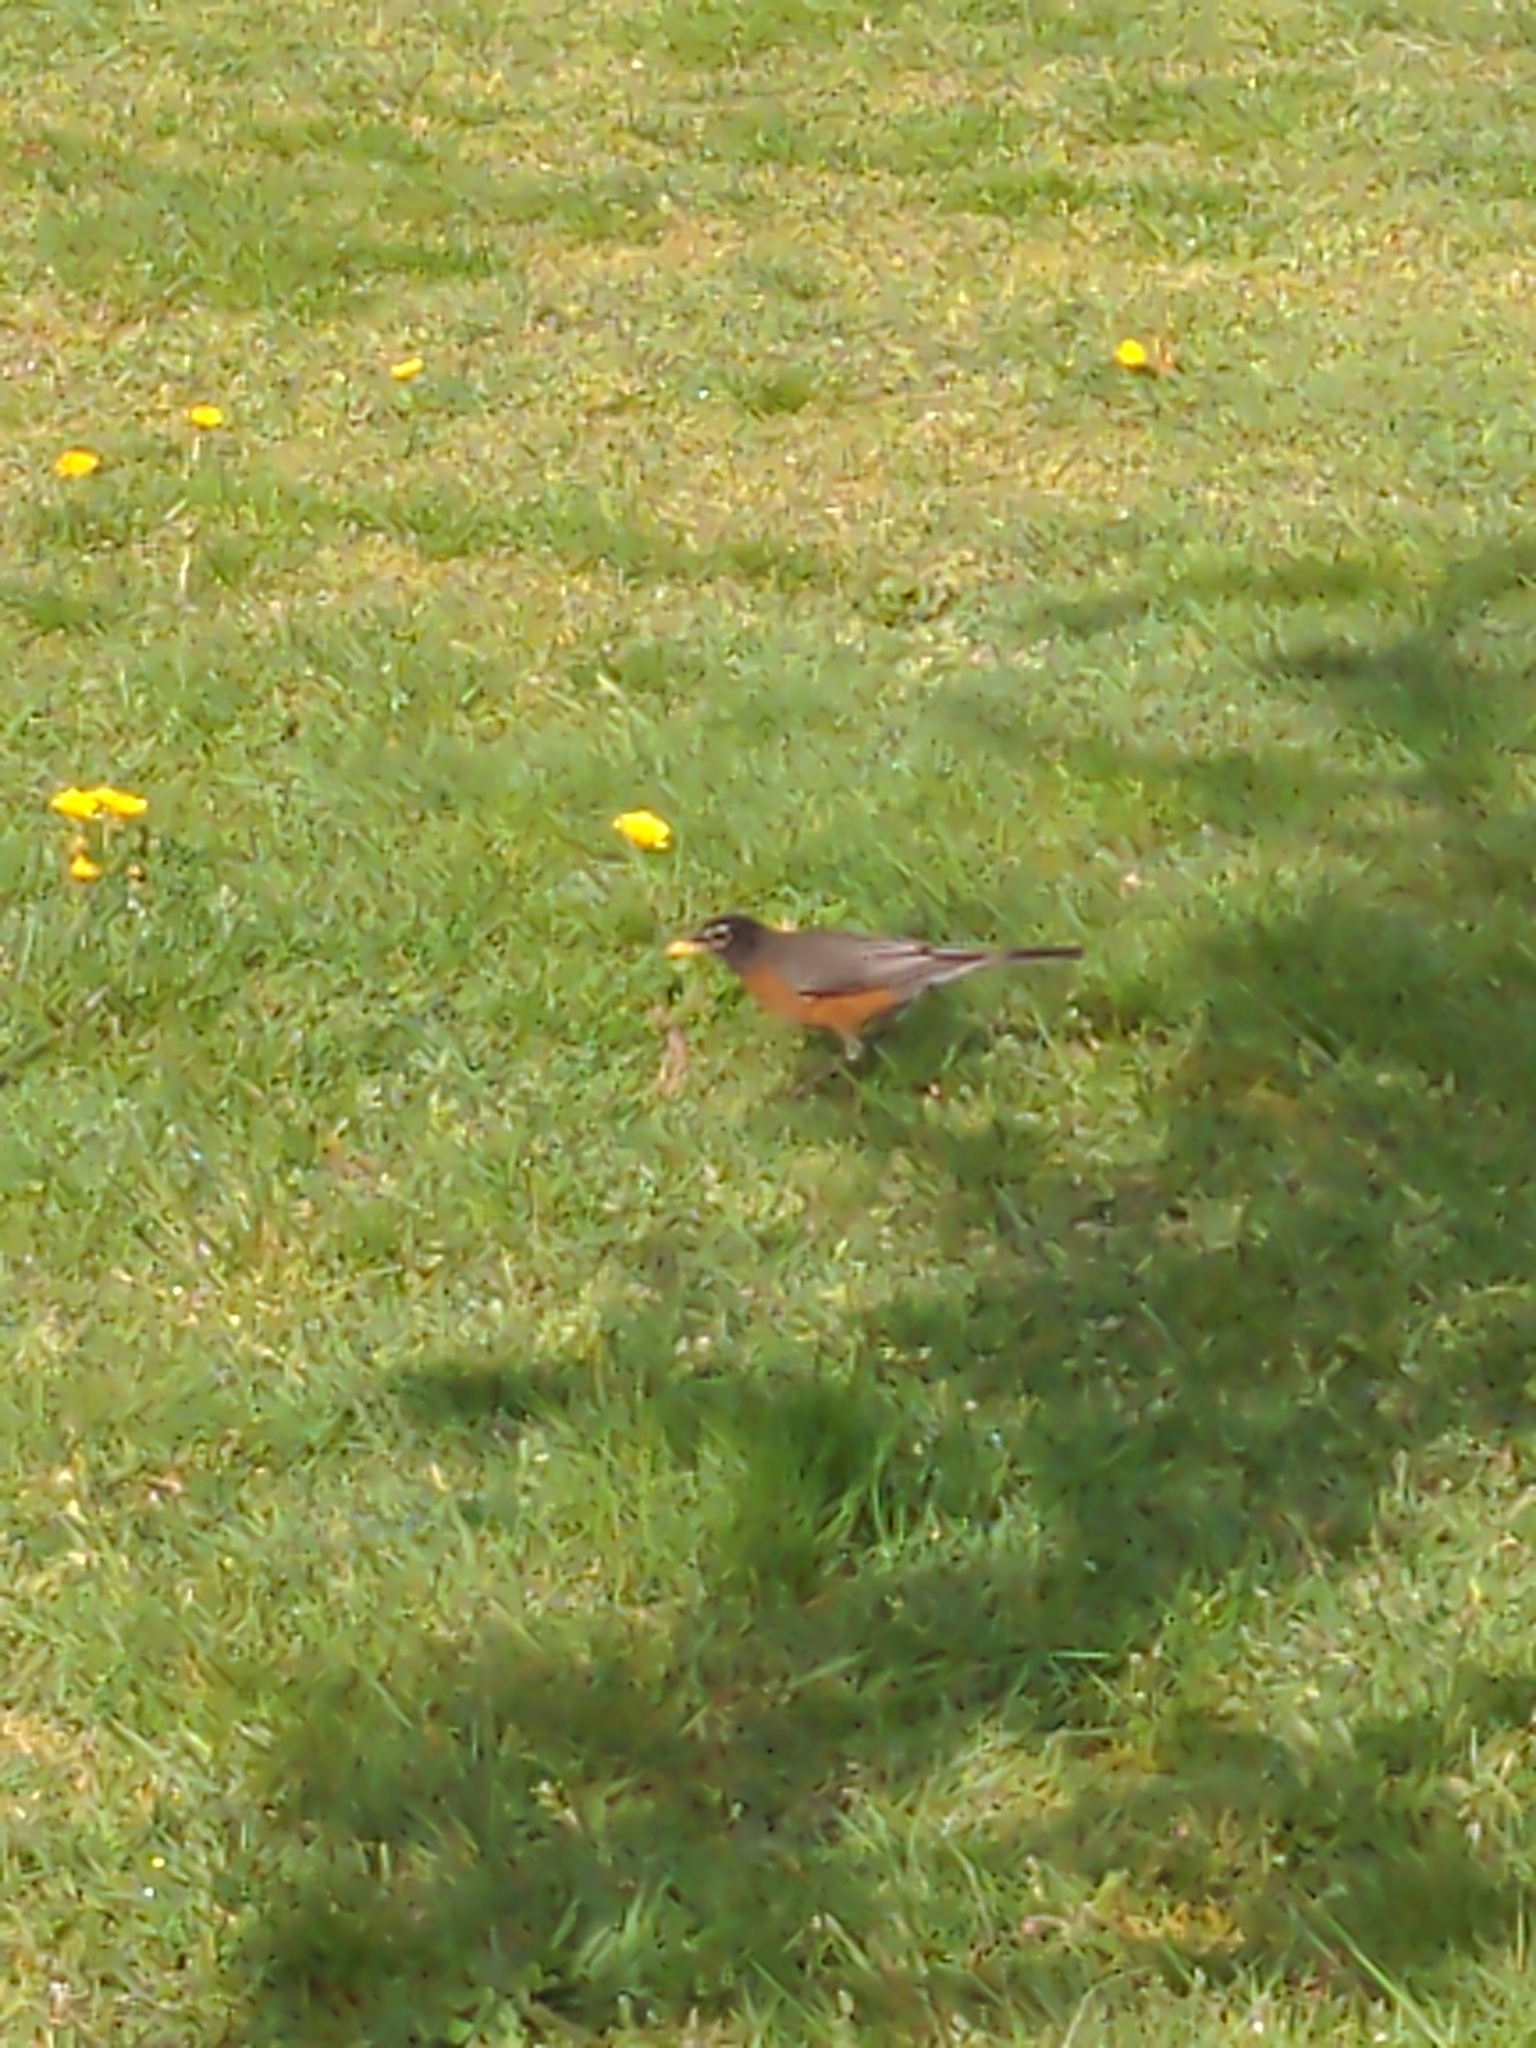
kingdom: Animalia
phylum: Chordata
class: Aves
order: Passeriformes
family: Turdidae
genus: Turdus
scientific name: Turdus migratorius
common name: American robin
